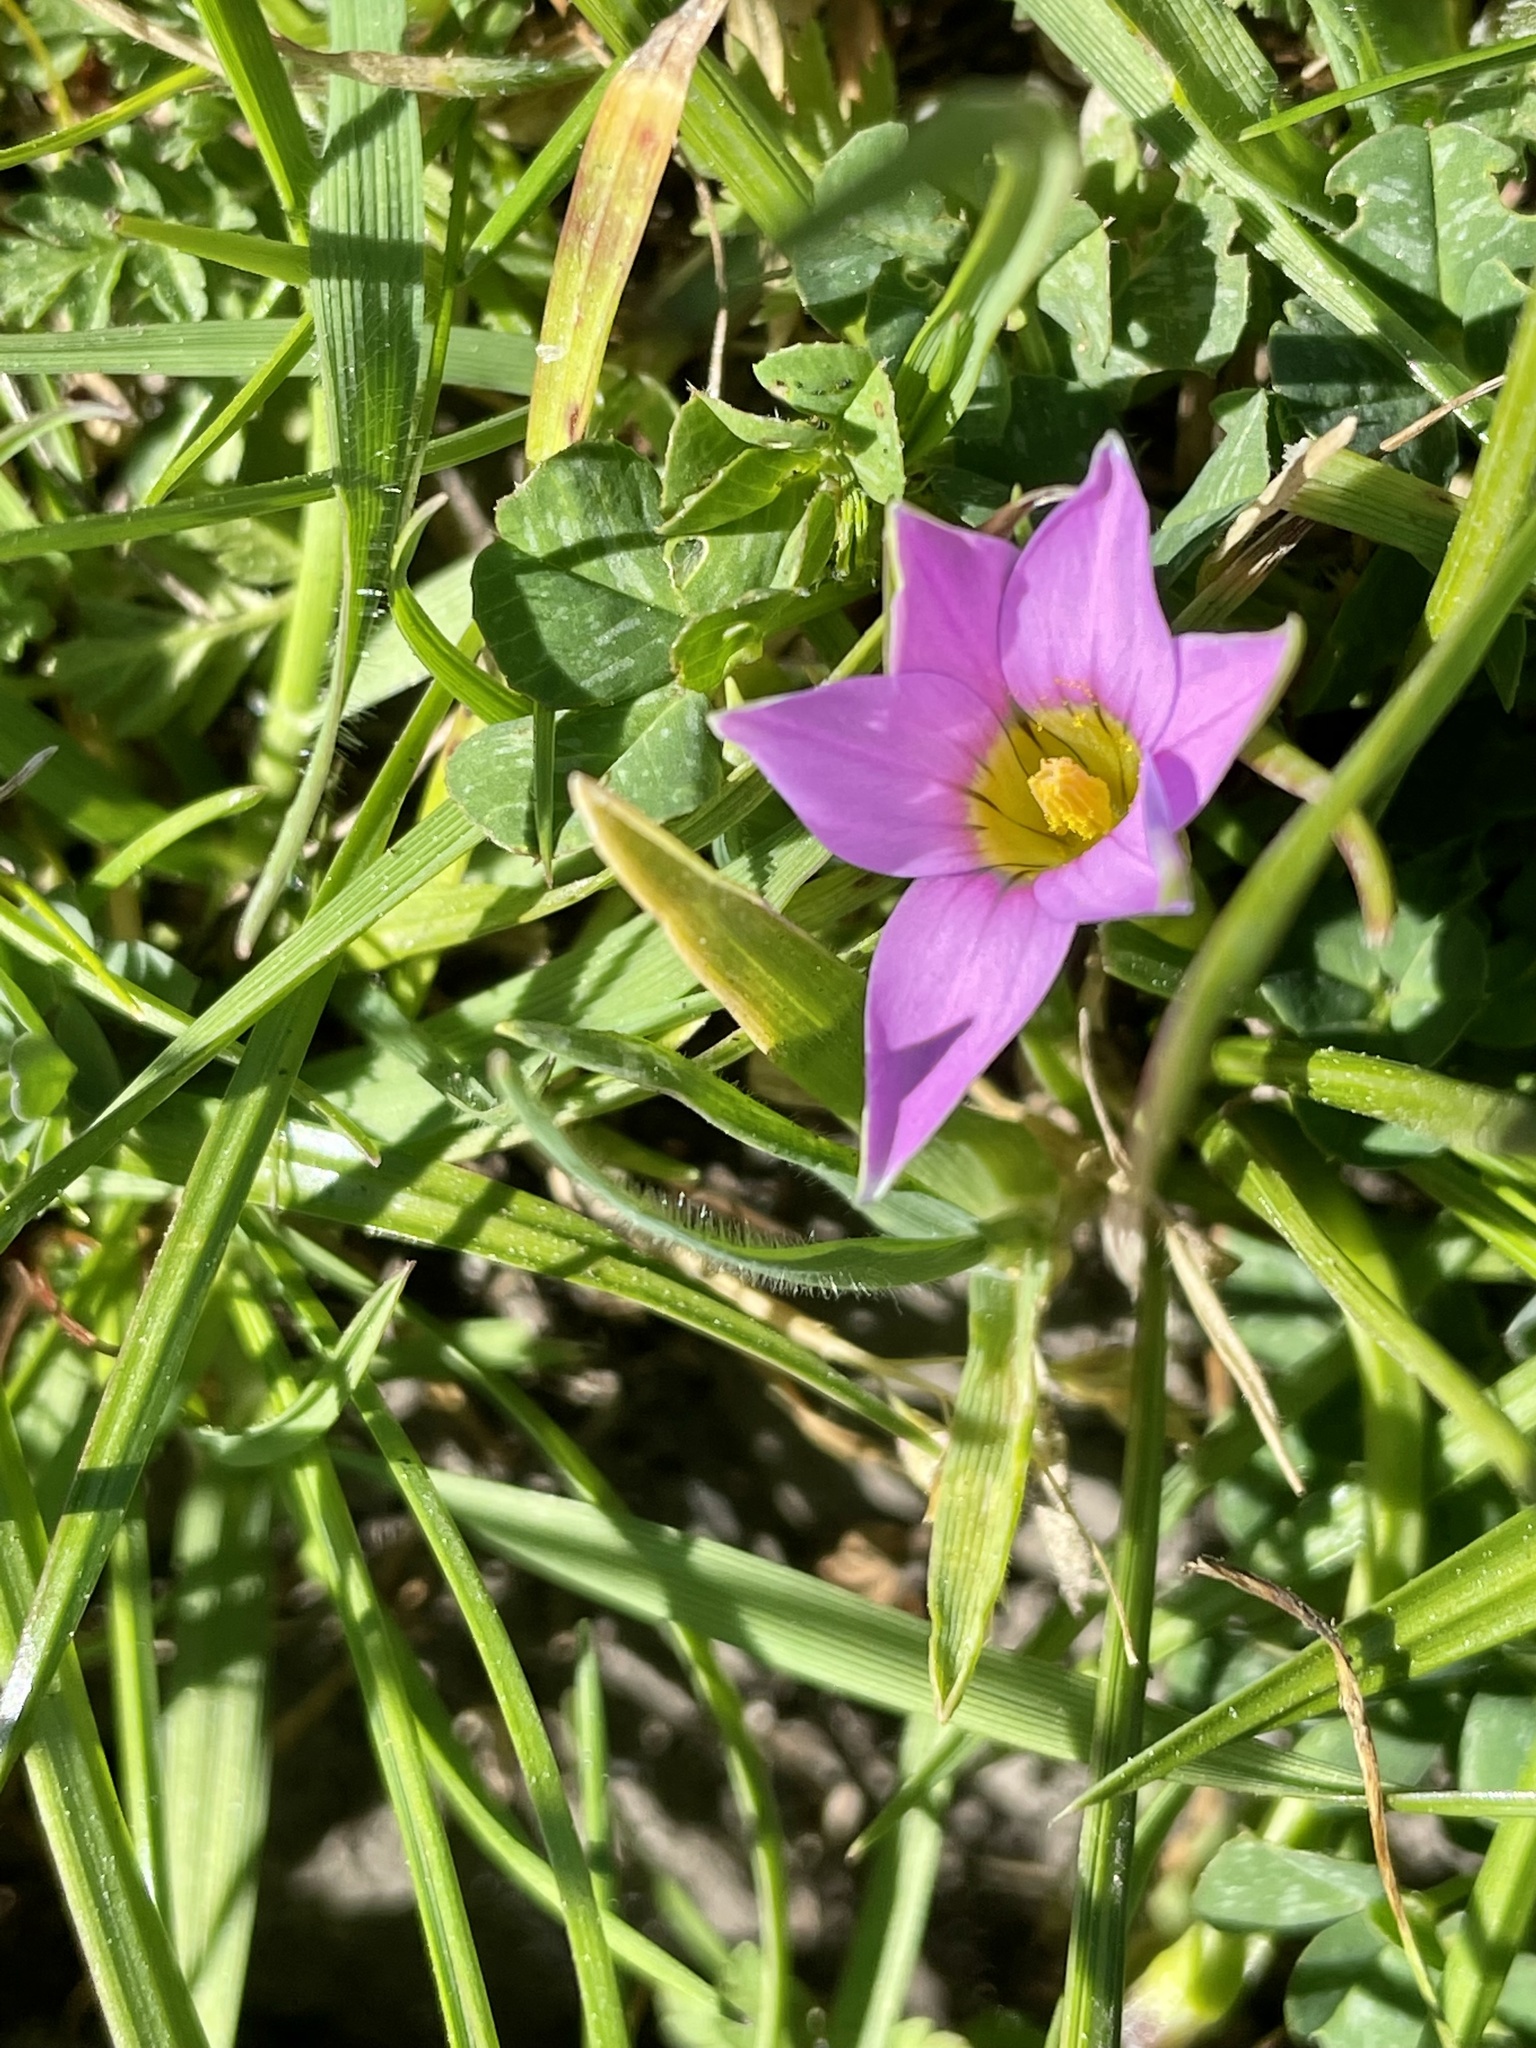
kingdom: Plantae
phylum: Tracheophyta
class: Liliopsida
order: Asparagales
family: Iridaceae
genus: Romulea
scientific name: Romulea rosea
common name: Oniongrass
